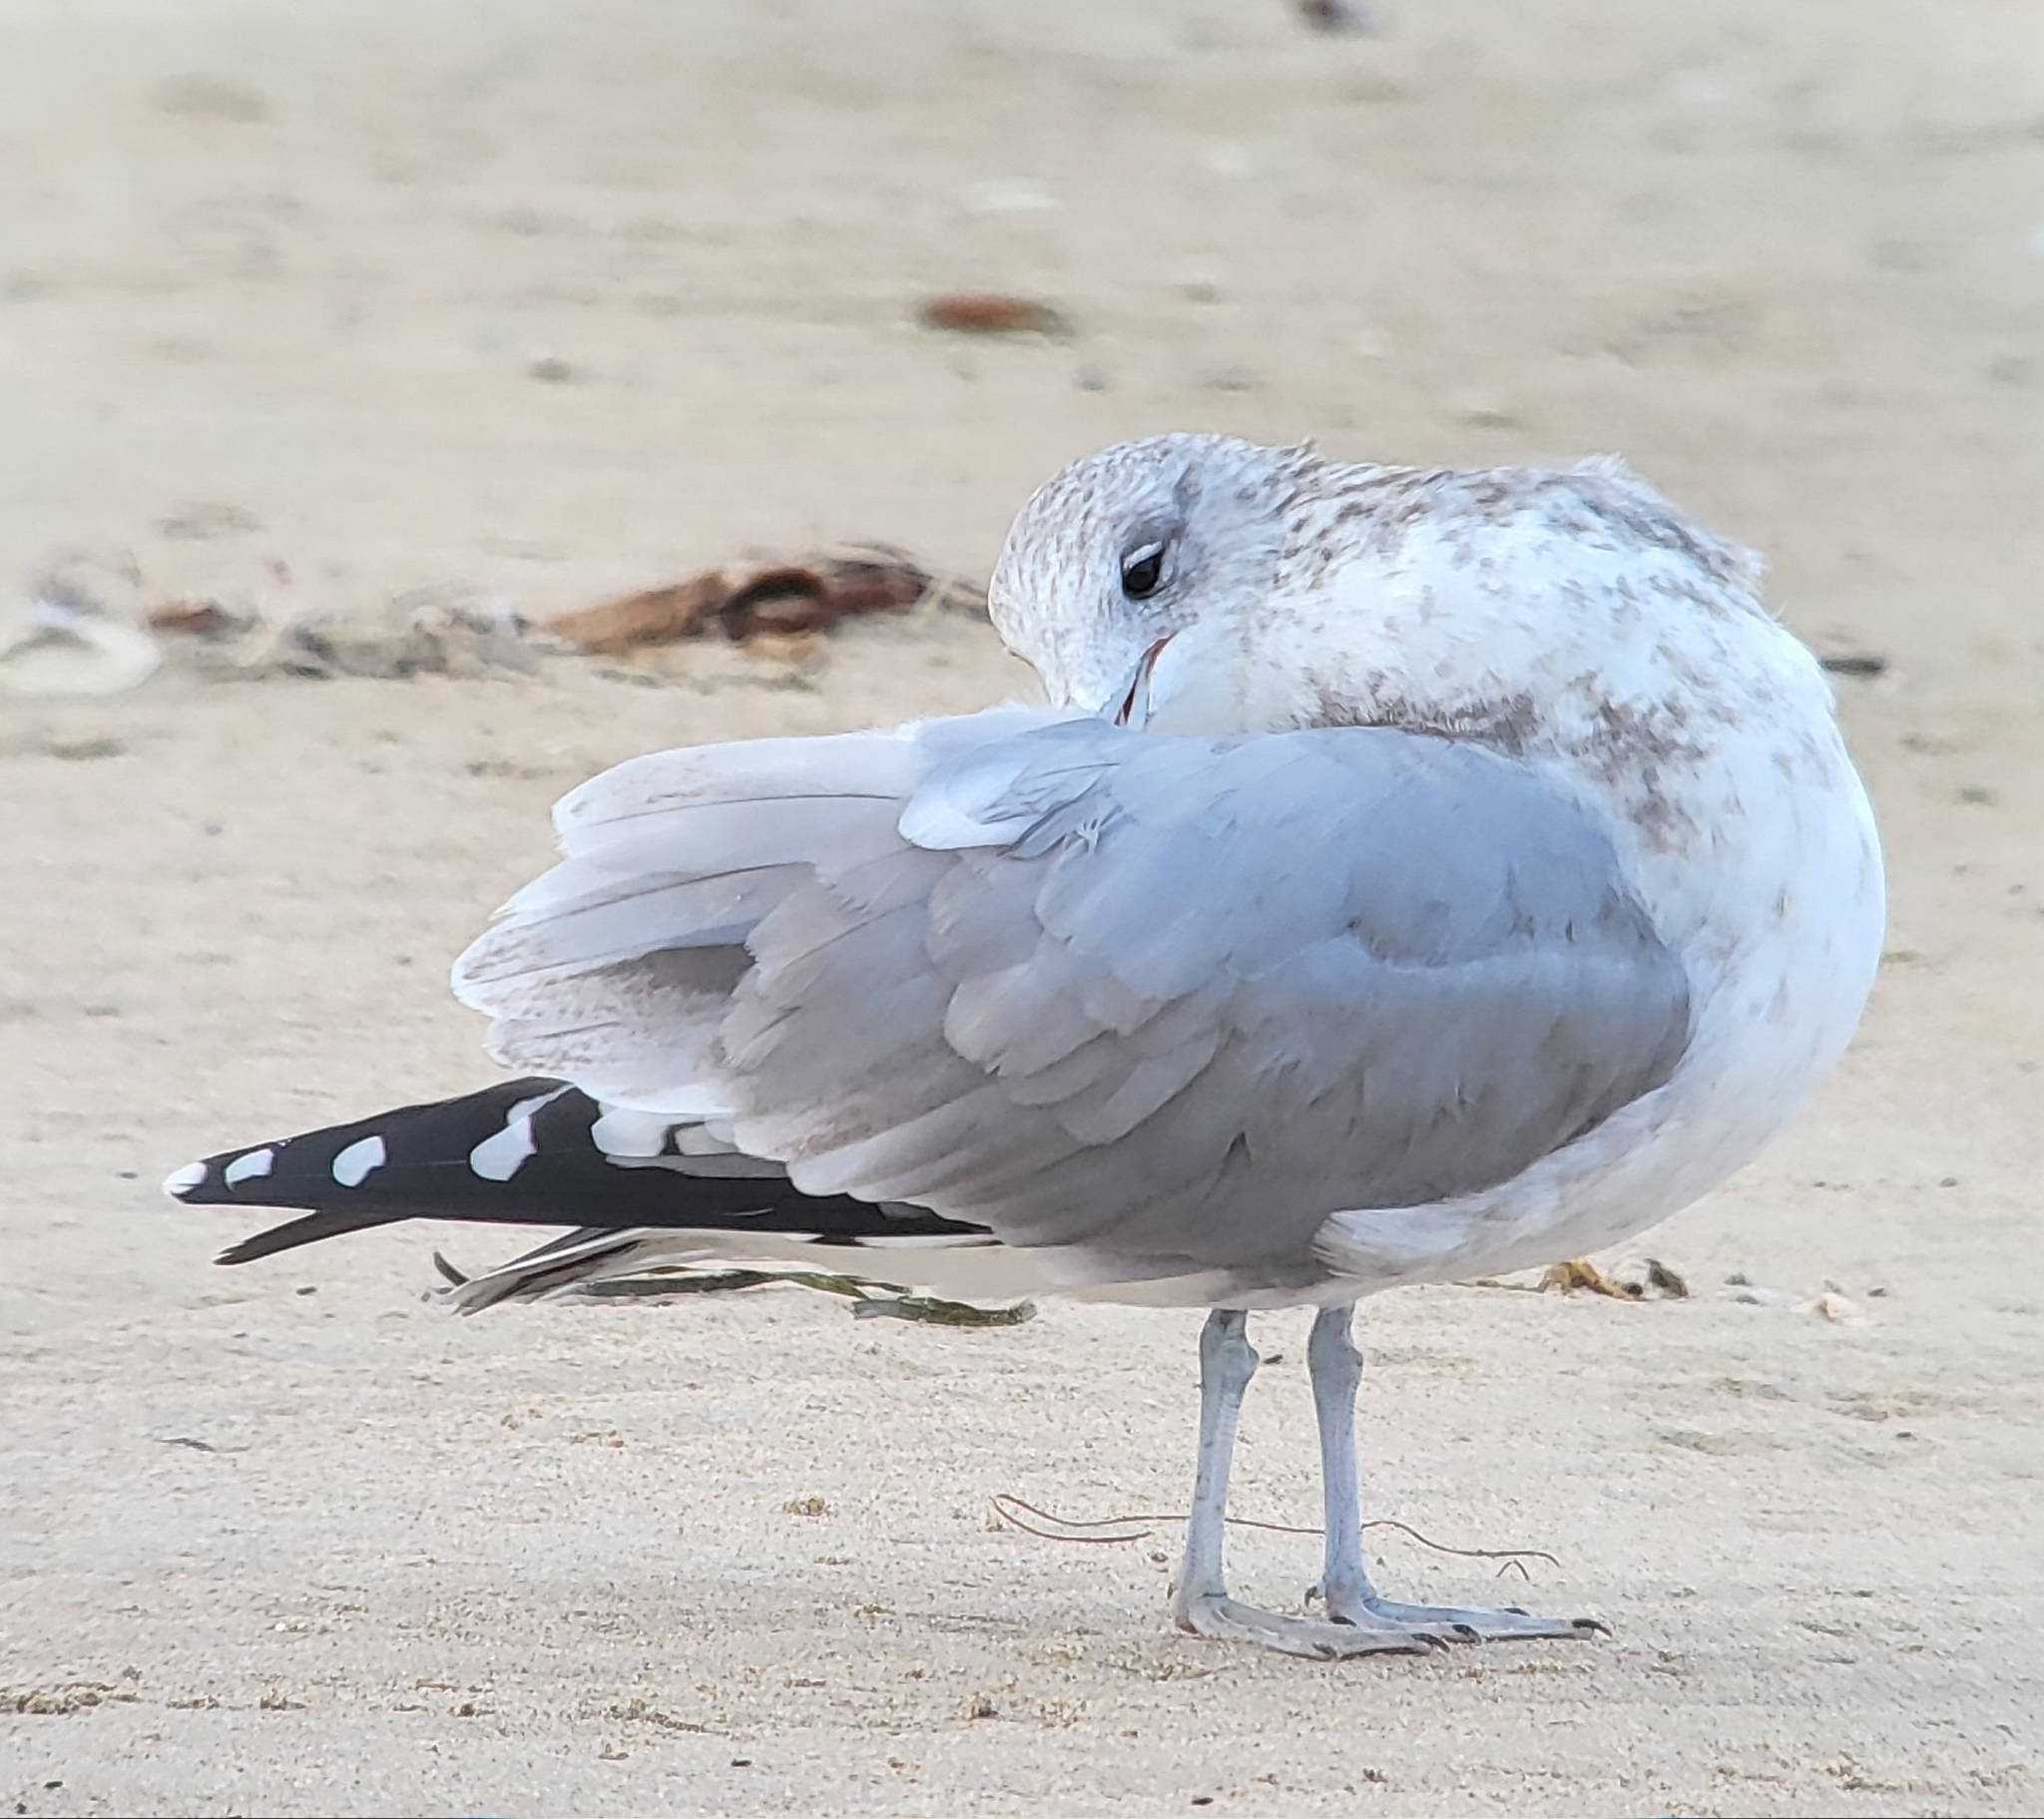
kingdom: Animalia
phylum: Chordata
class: Aves
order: Charadriiformes
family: Laridae
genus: Larus
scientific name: Larus californicus
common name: California gull
